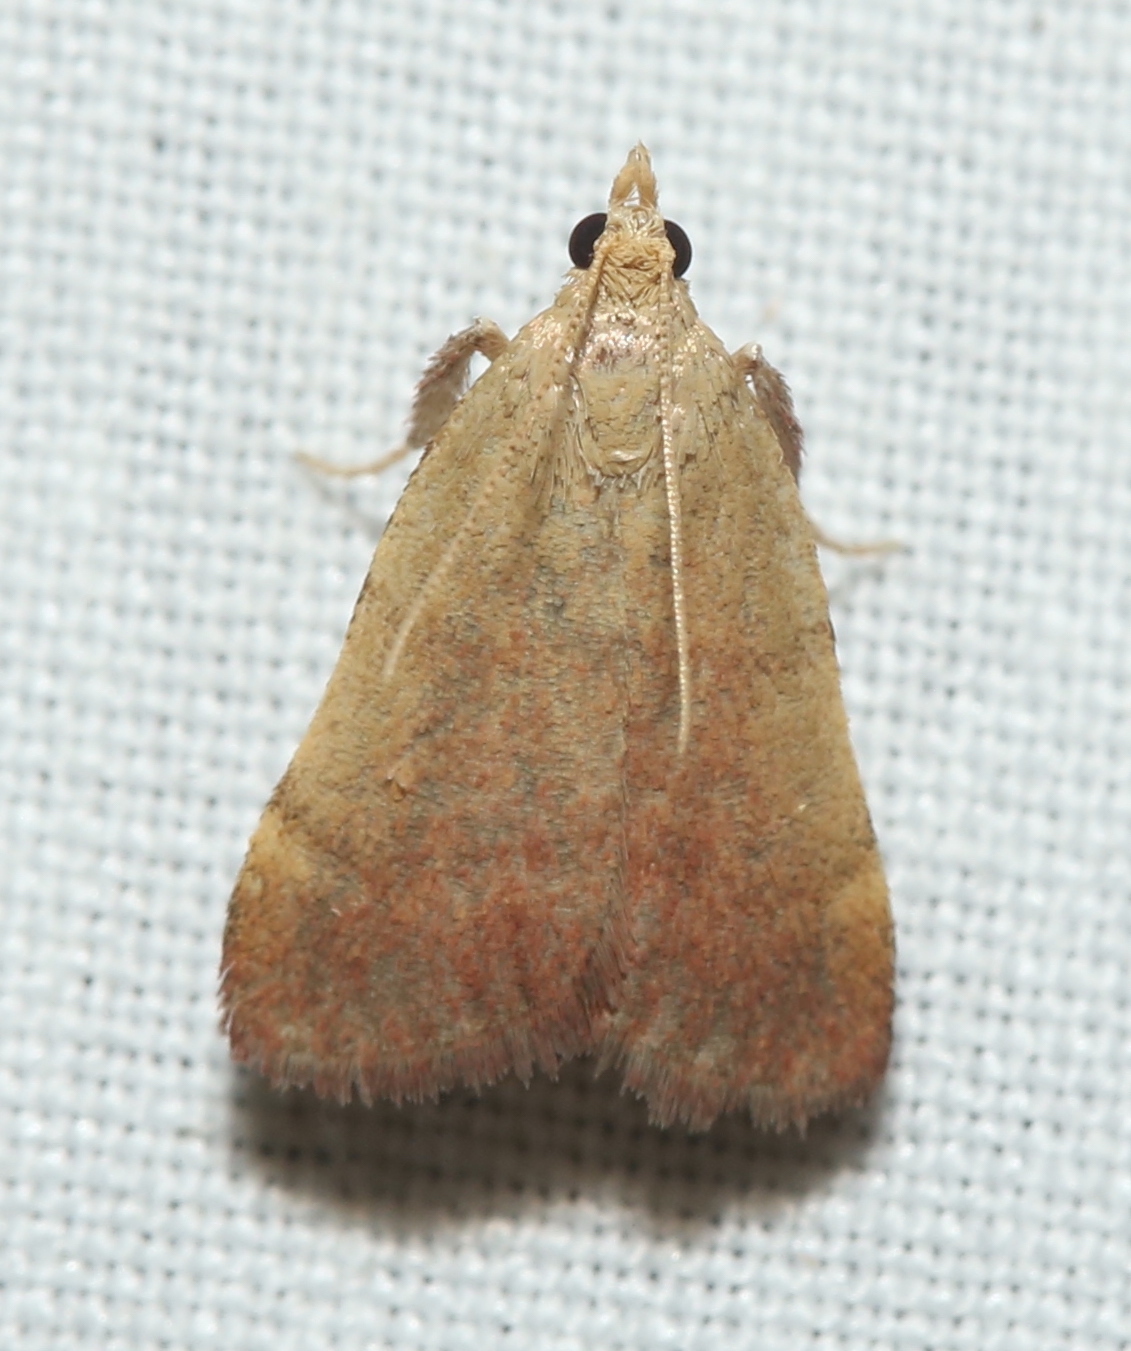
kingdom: Animalia
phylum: Arthropoda
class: Insecta
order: Lepidoptera
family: Pyralidae
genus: Condylolomia
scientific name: Condylolomia participialis
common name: Drab condylolomia moth
